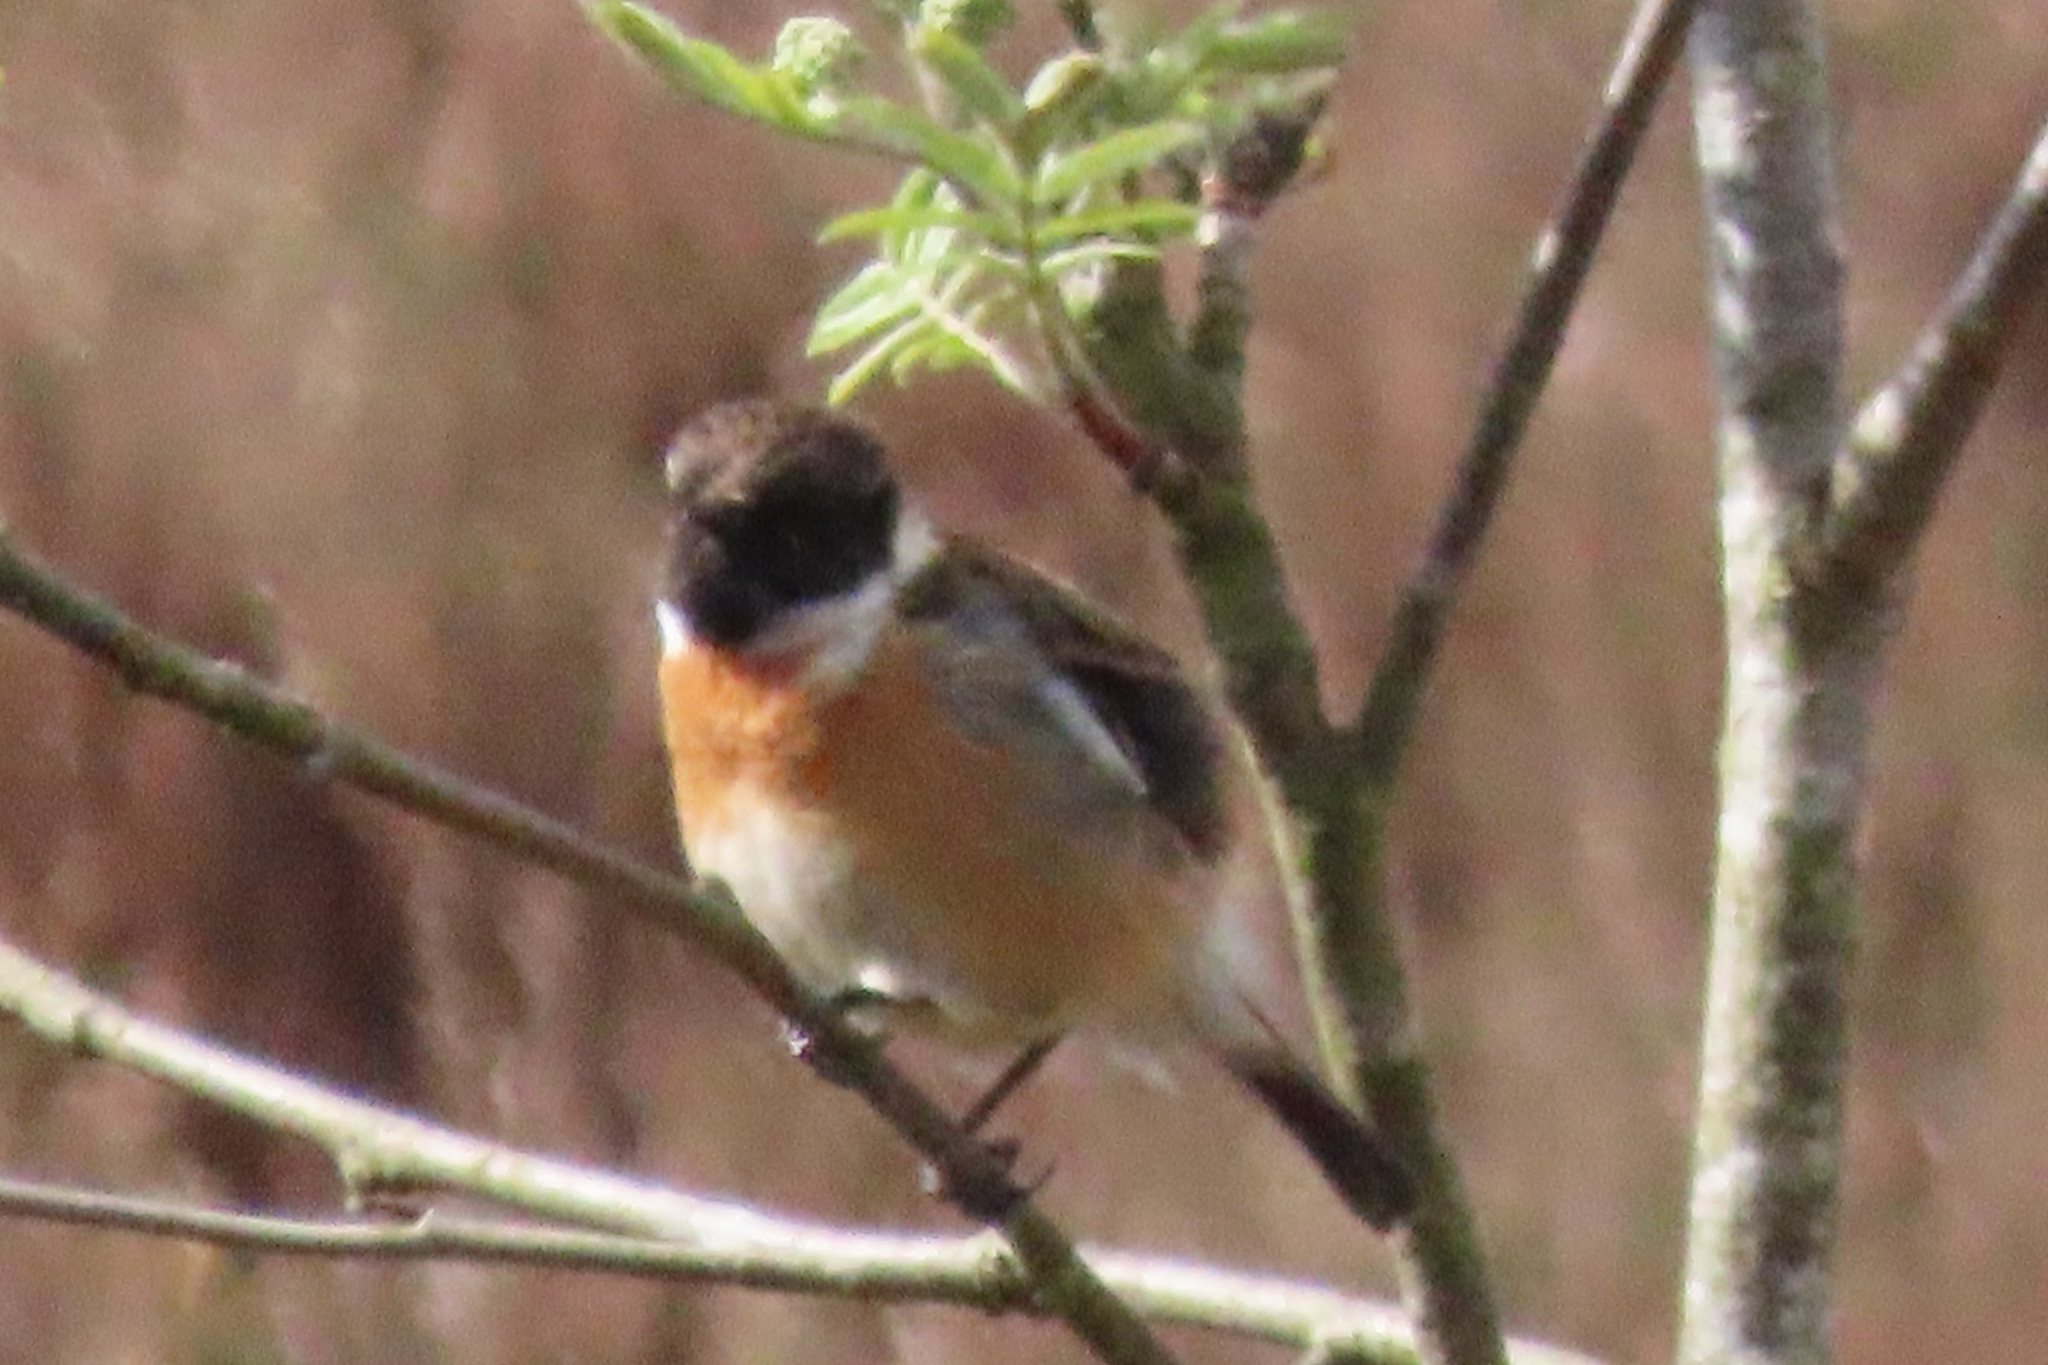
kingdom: Animalia
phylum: Chordata
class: Aves
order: Passeriformes
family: Muscicapidae
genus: Saxicola
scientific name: Saxicola rubicola
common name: European stonechat
